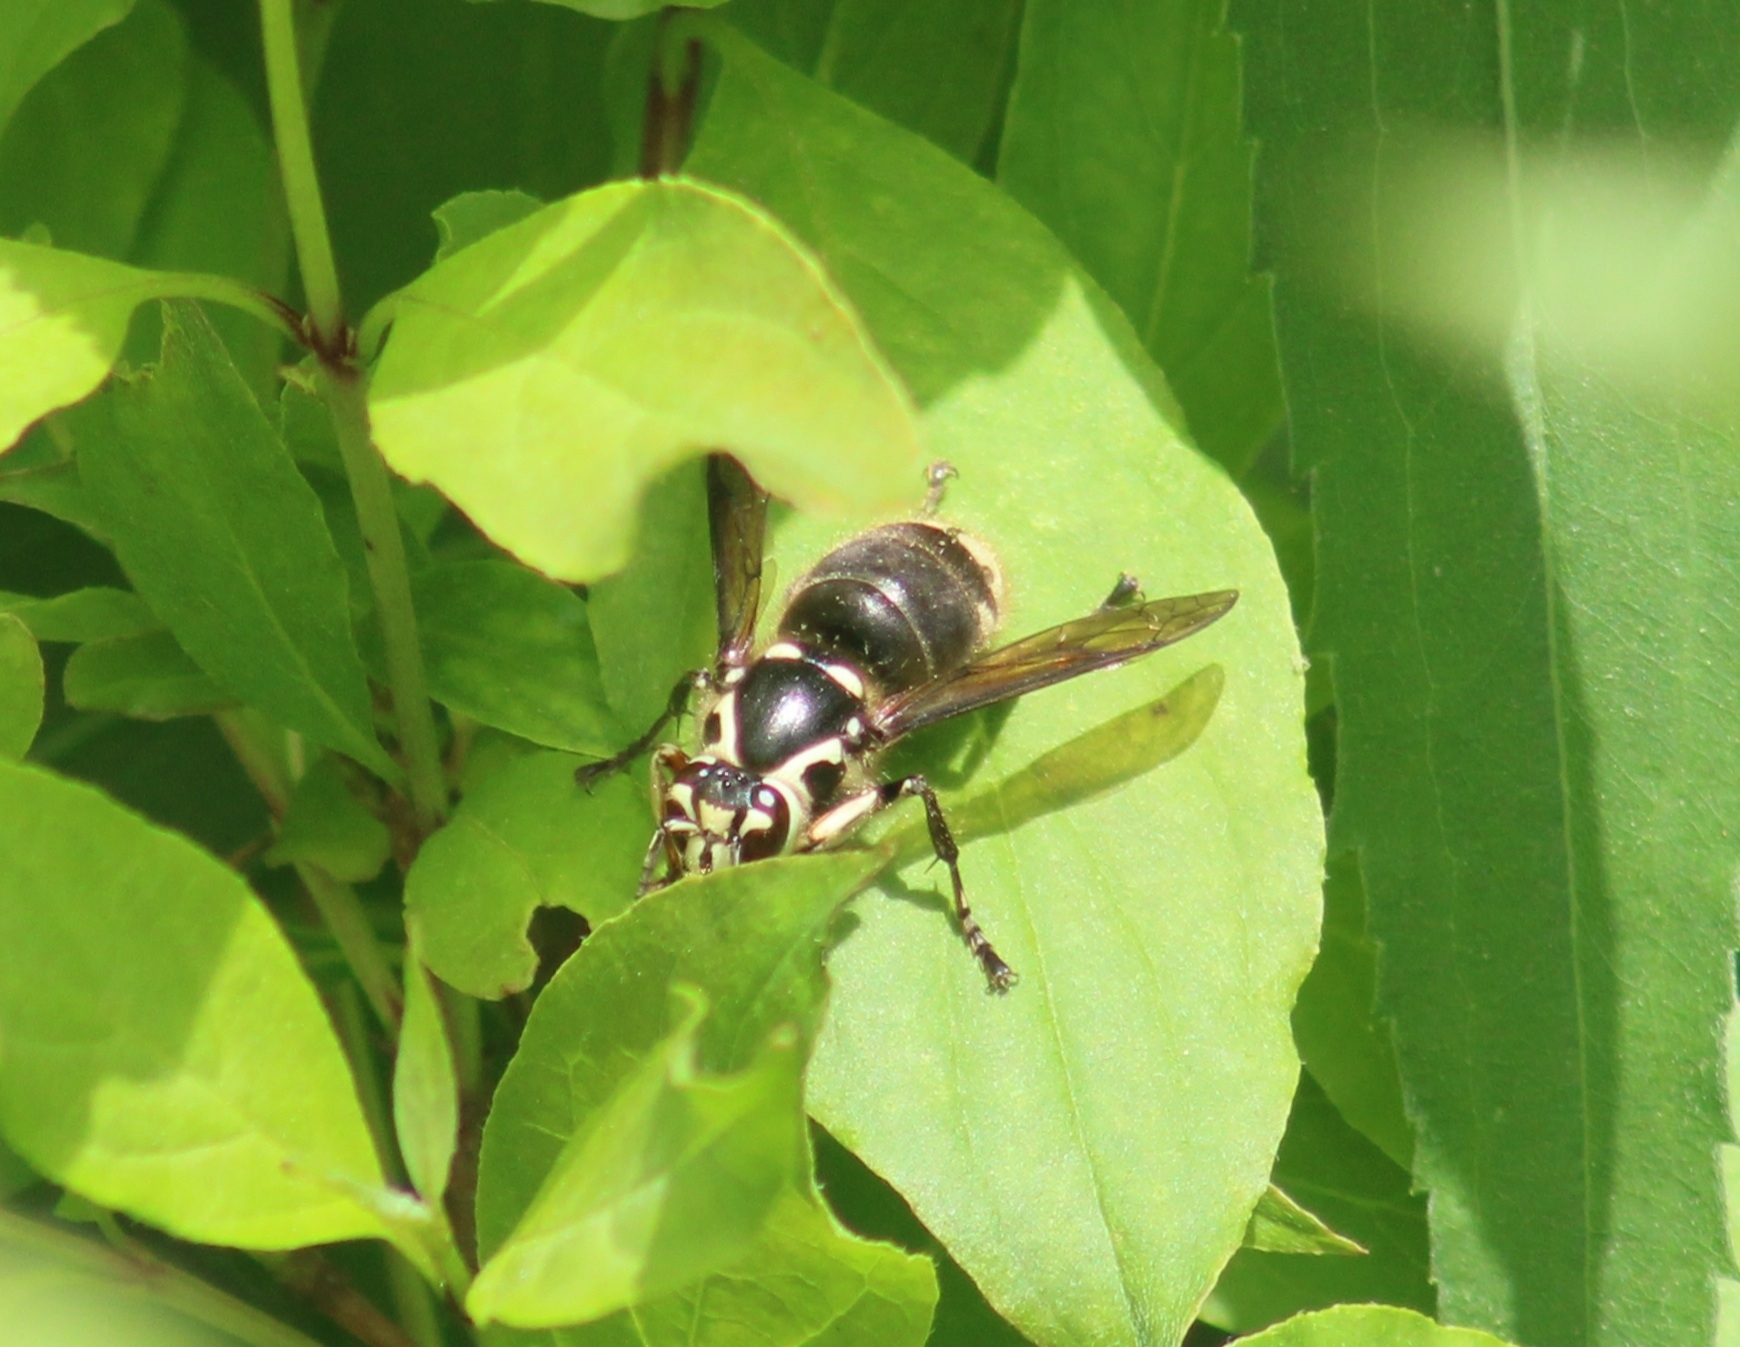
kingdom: Animalia
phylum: Arthropoda
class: Insecta
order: Hymenoptera
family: Vespidae
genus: Dolichovespula
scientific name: Dolichovespula maculata
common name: Bald-faced hornet
